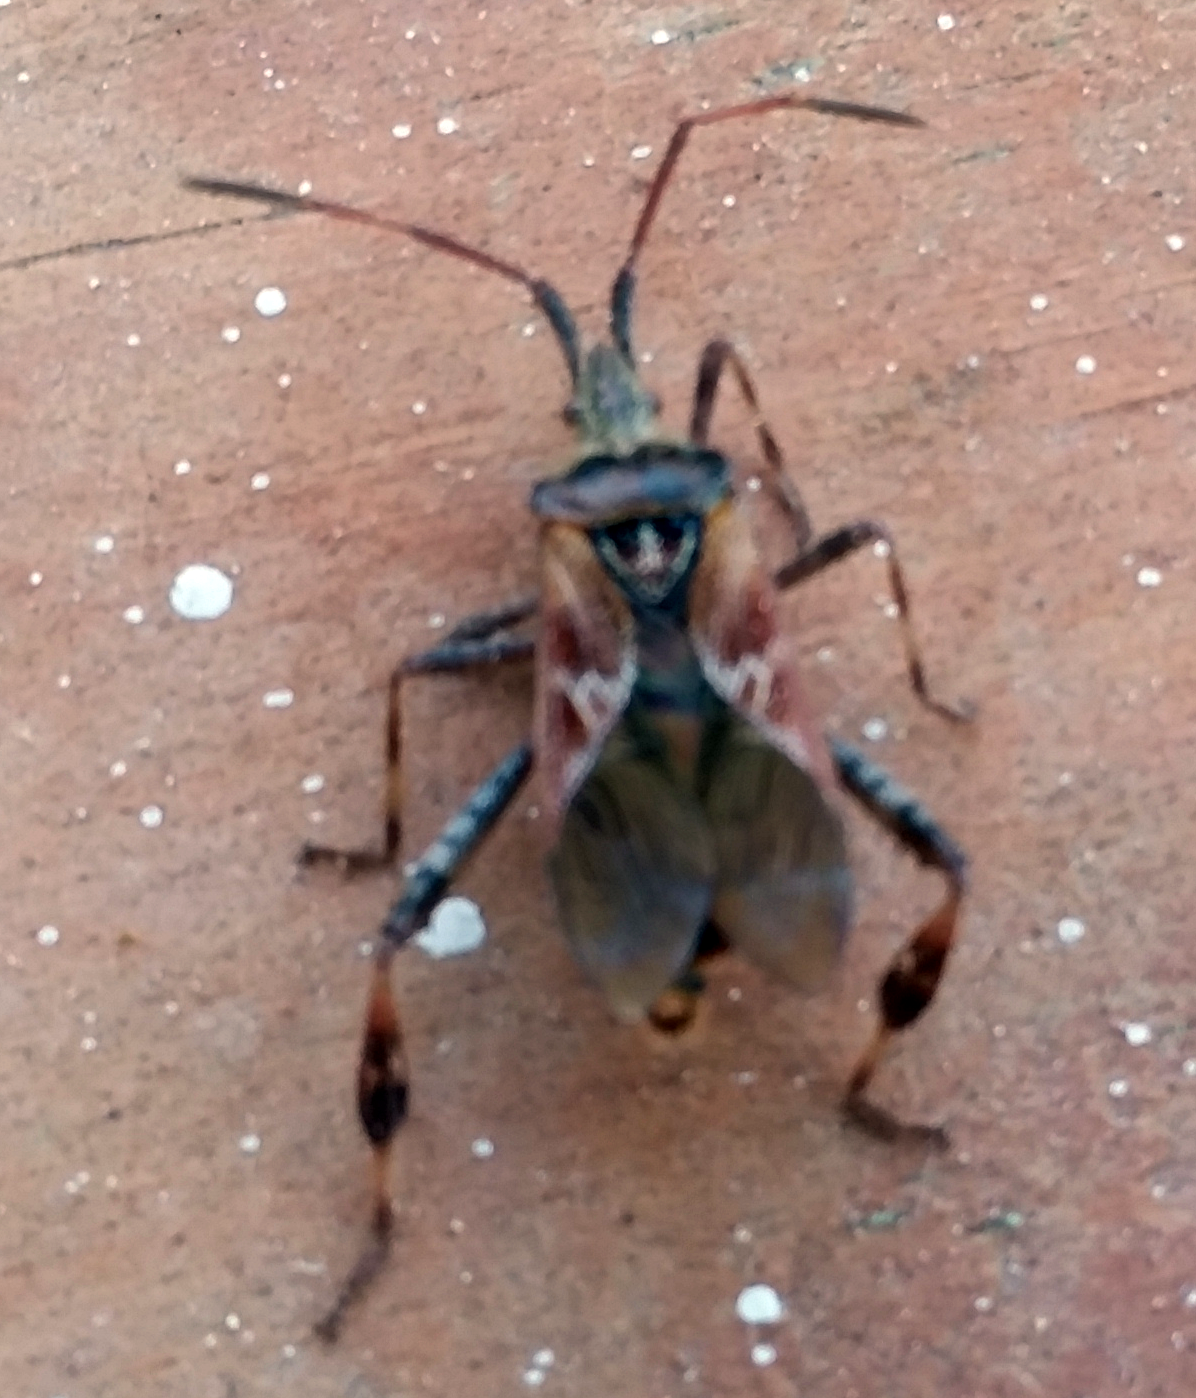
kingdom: Animalia
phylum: Arthropoda
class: Insecta
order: Hemiptera
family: Coreidae
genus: Leptoglossus
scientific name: Leptoglossus occidentalis
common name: Western conifer-seed bug
